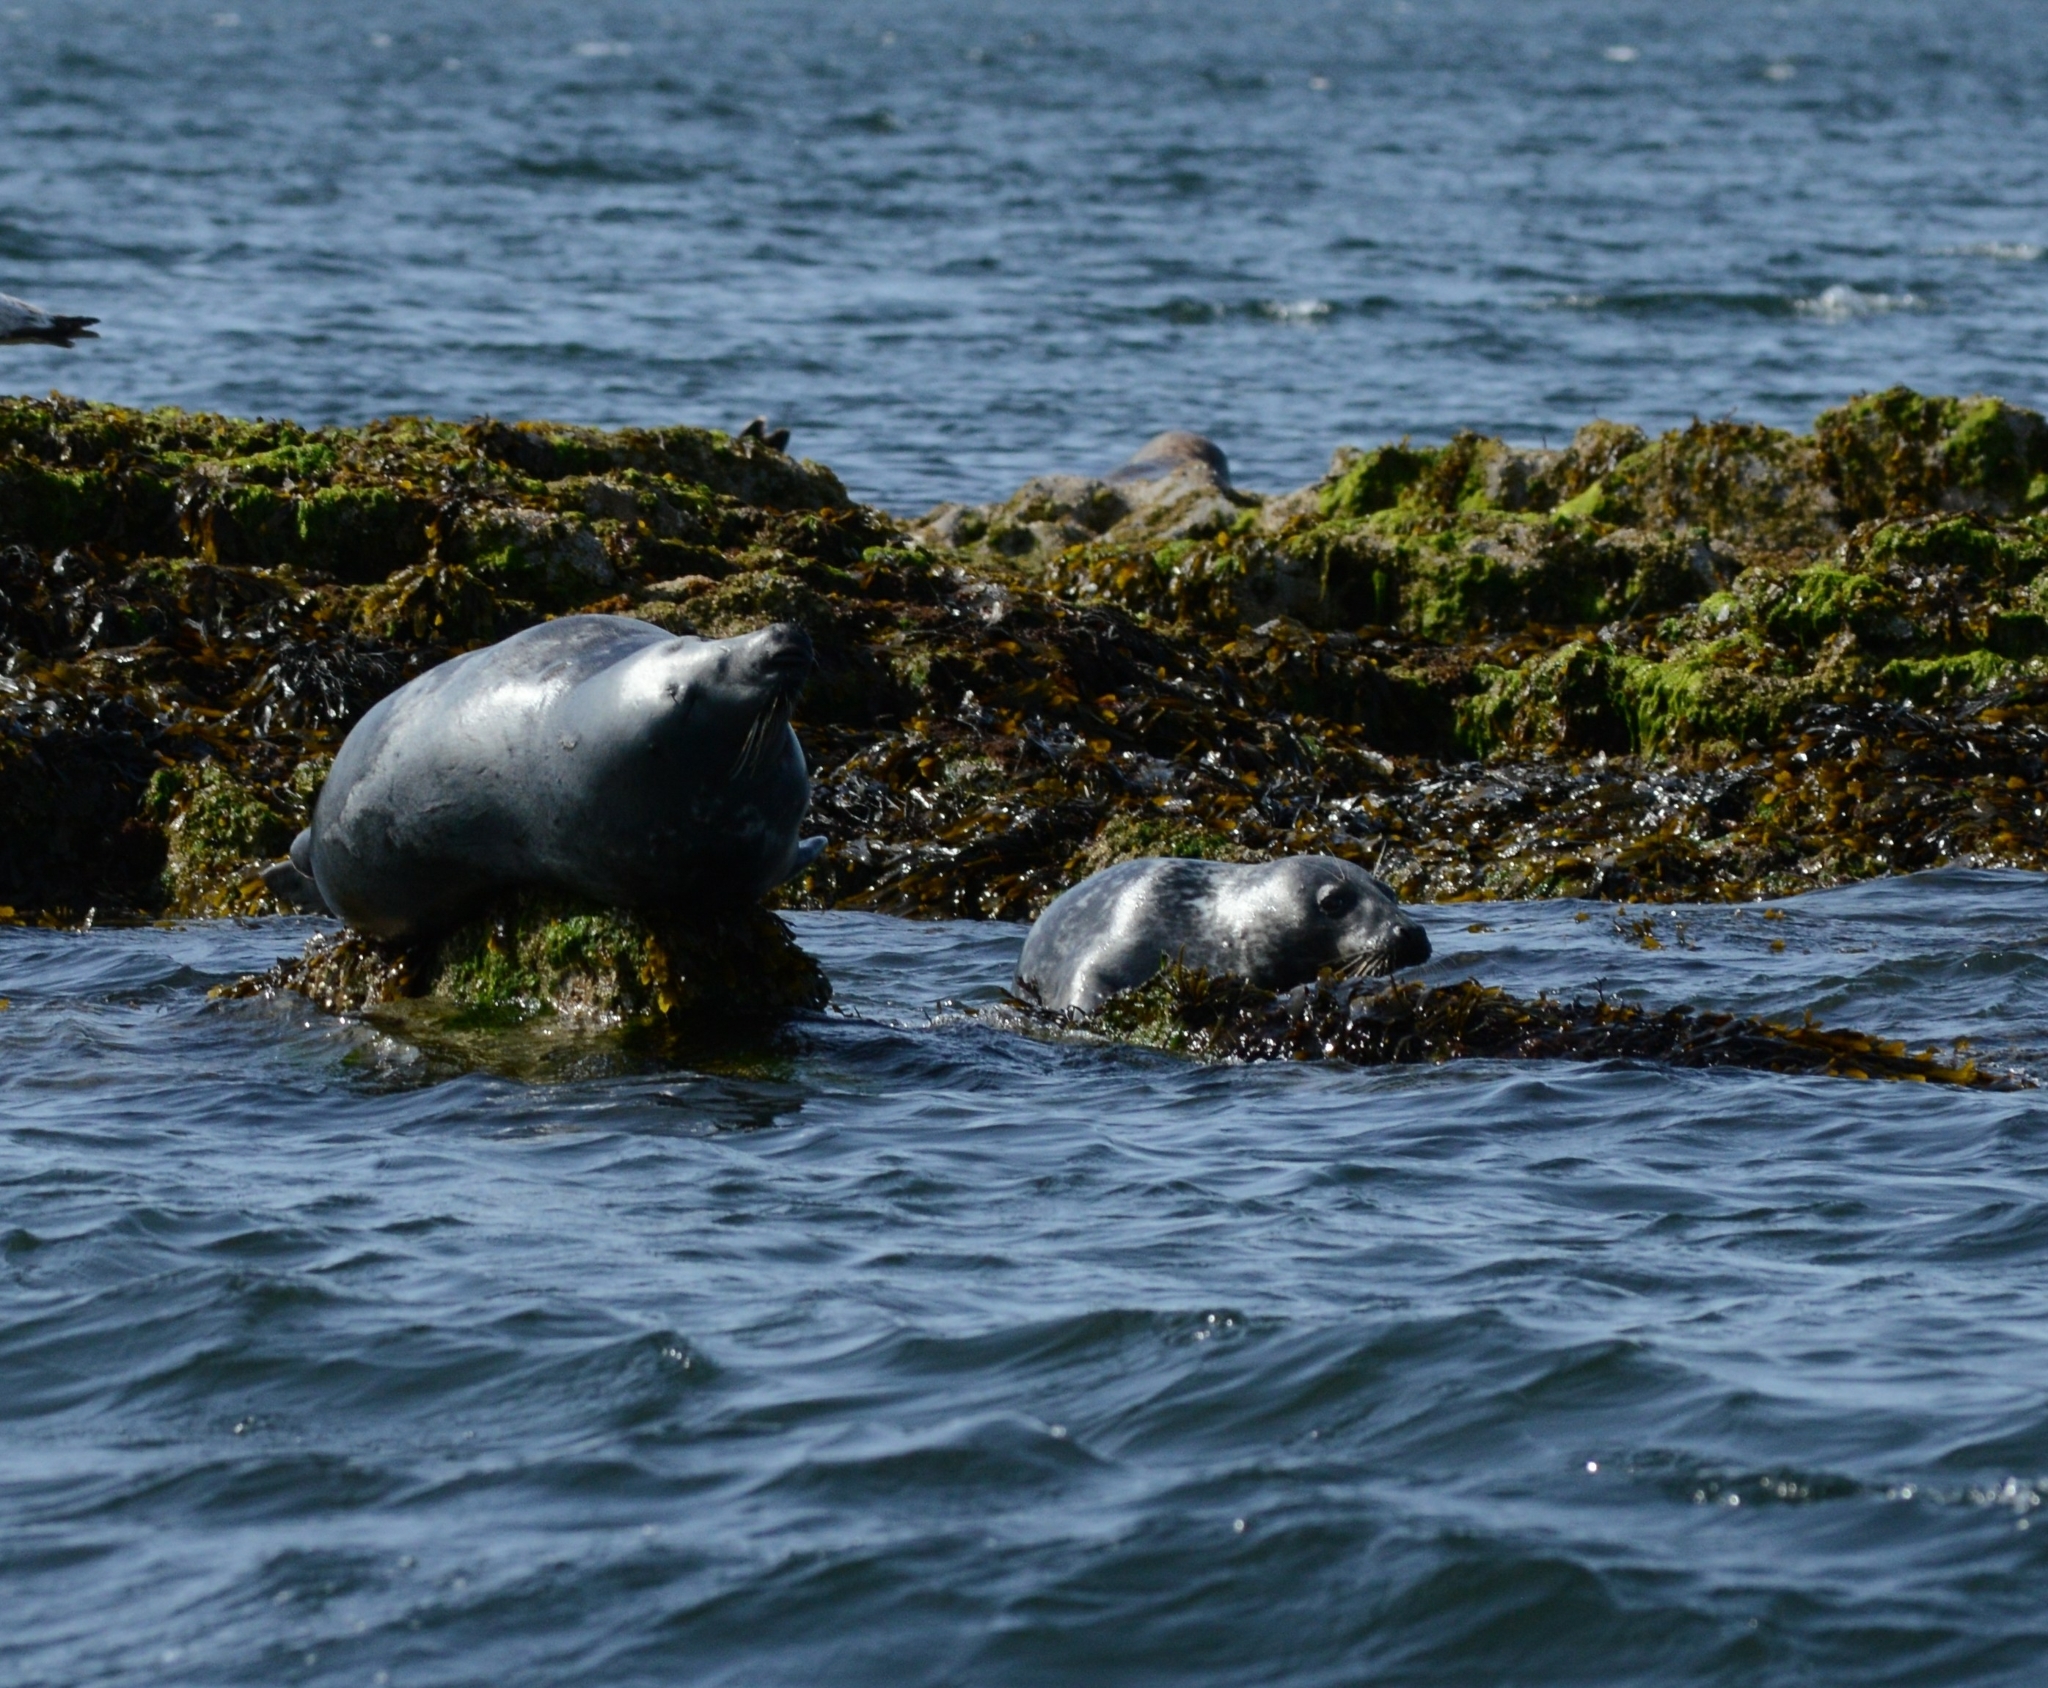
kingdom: Animalia
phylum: Chordata
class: Mammalia
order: Carnivora
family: Phocidae
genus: Halichoerus
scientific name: Halichoerus grypus
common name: Grey seal
